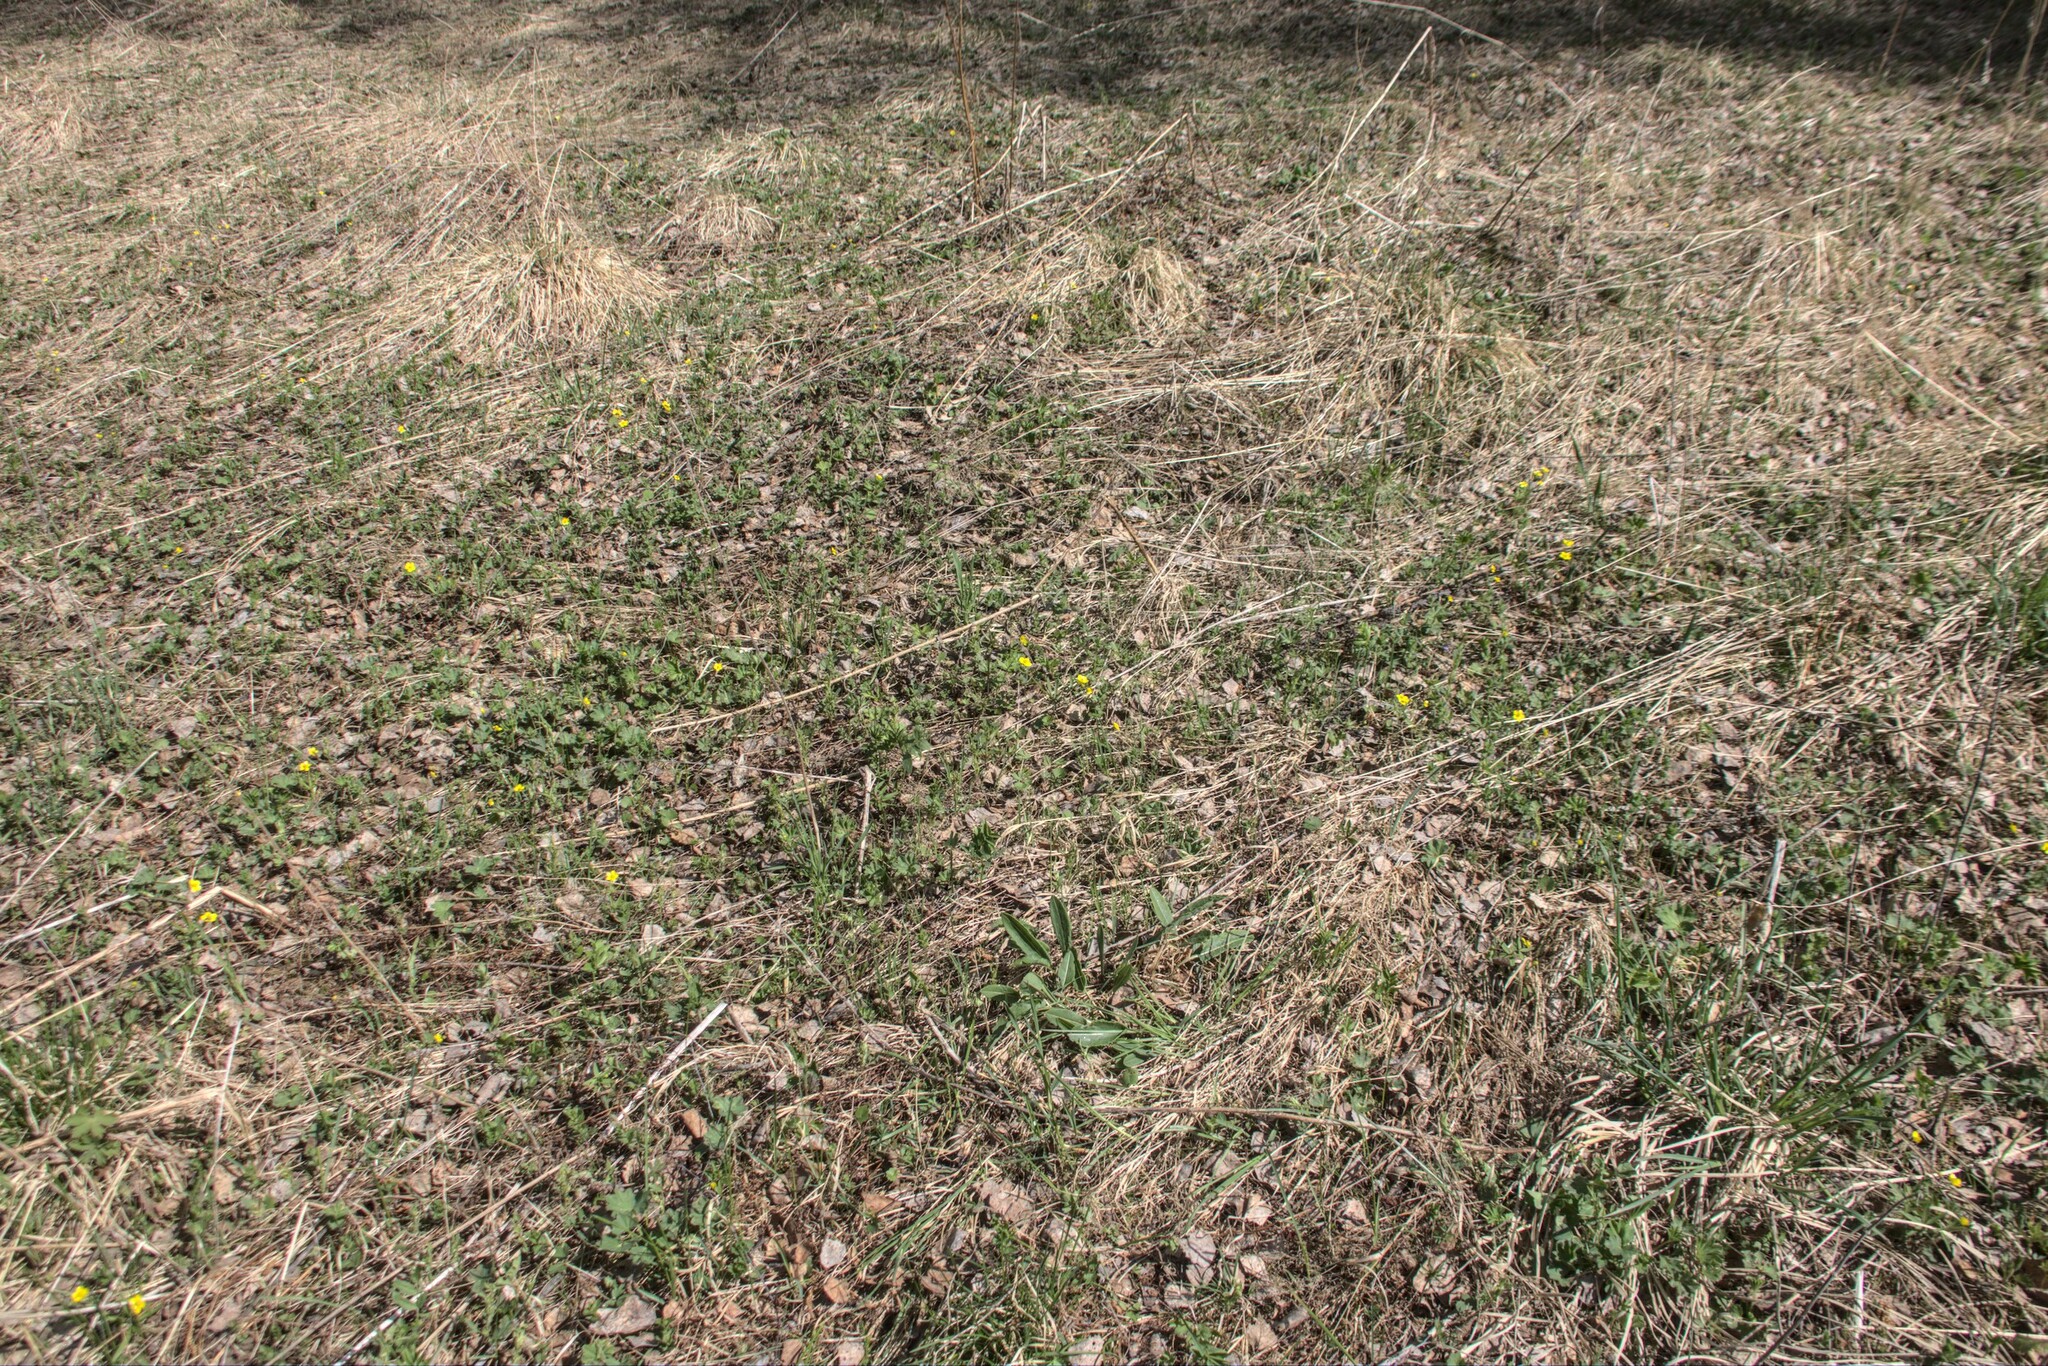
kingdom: Plantae
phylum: Tracheophyta
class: Magnoliopsida
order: Ranunculales
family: Ranunculaceae
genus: Ranunculus
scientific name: Ranunculus monophyllus
